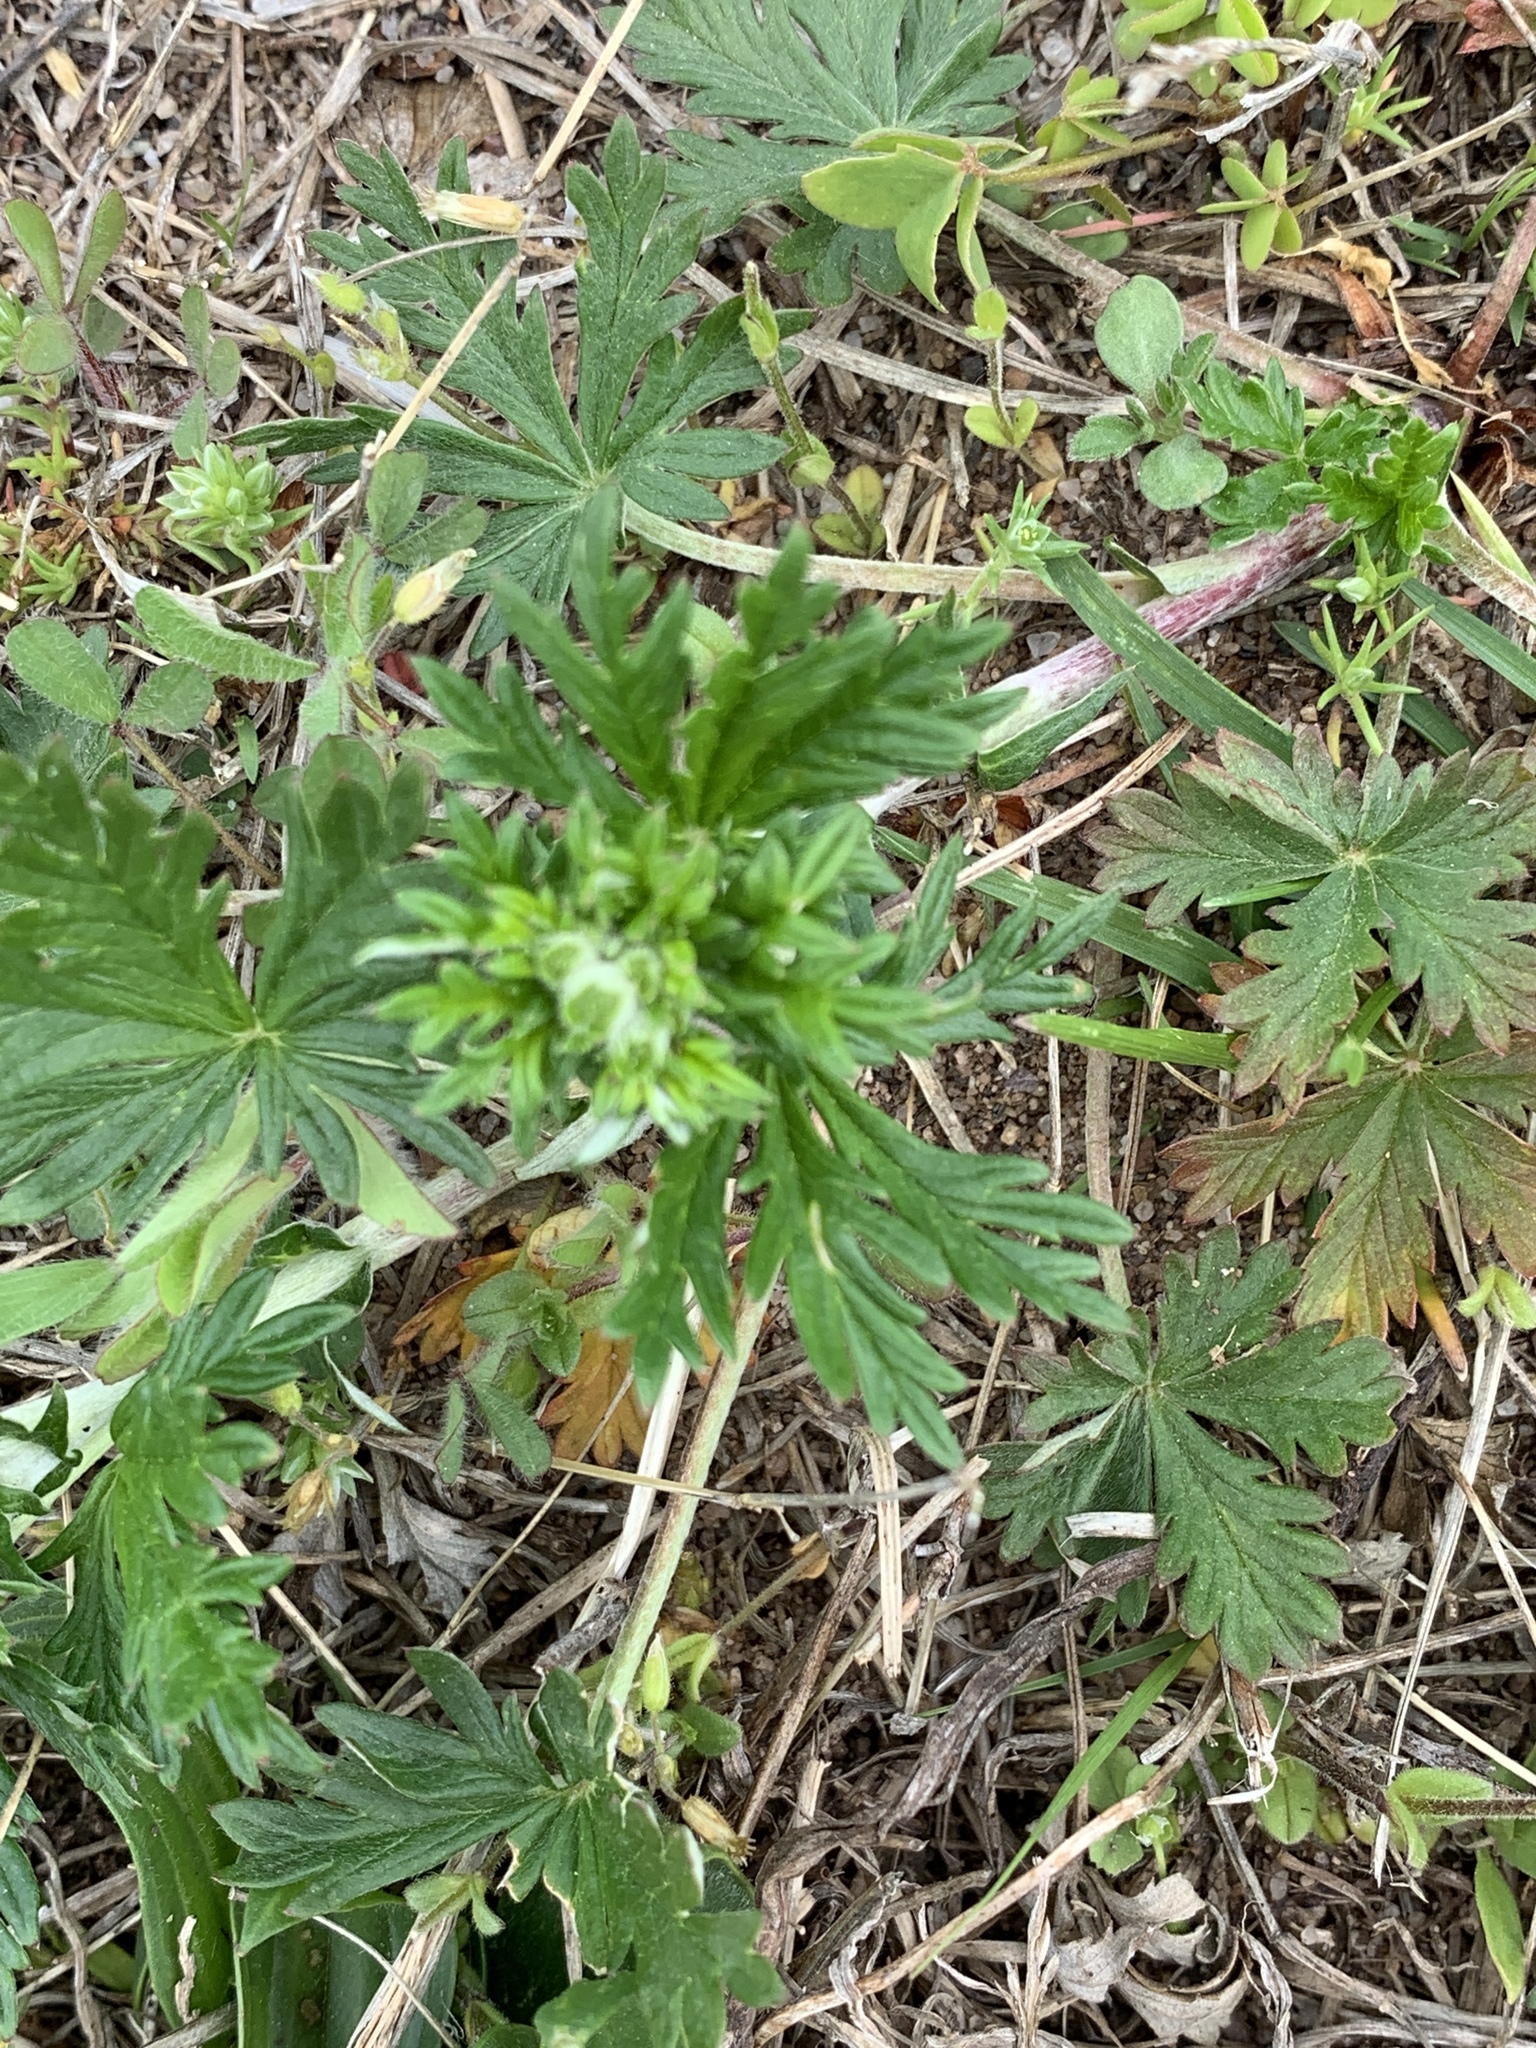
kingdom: Plantae
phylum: Tracheophyta
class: Magnoliopsida
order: Rosales
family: Rosaceae
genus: Potentilla
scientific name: Potentilla argentea
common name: Hoary cinquefoil
